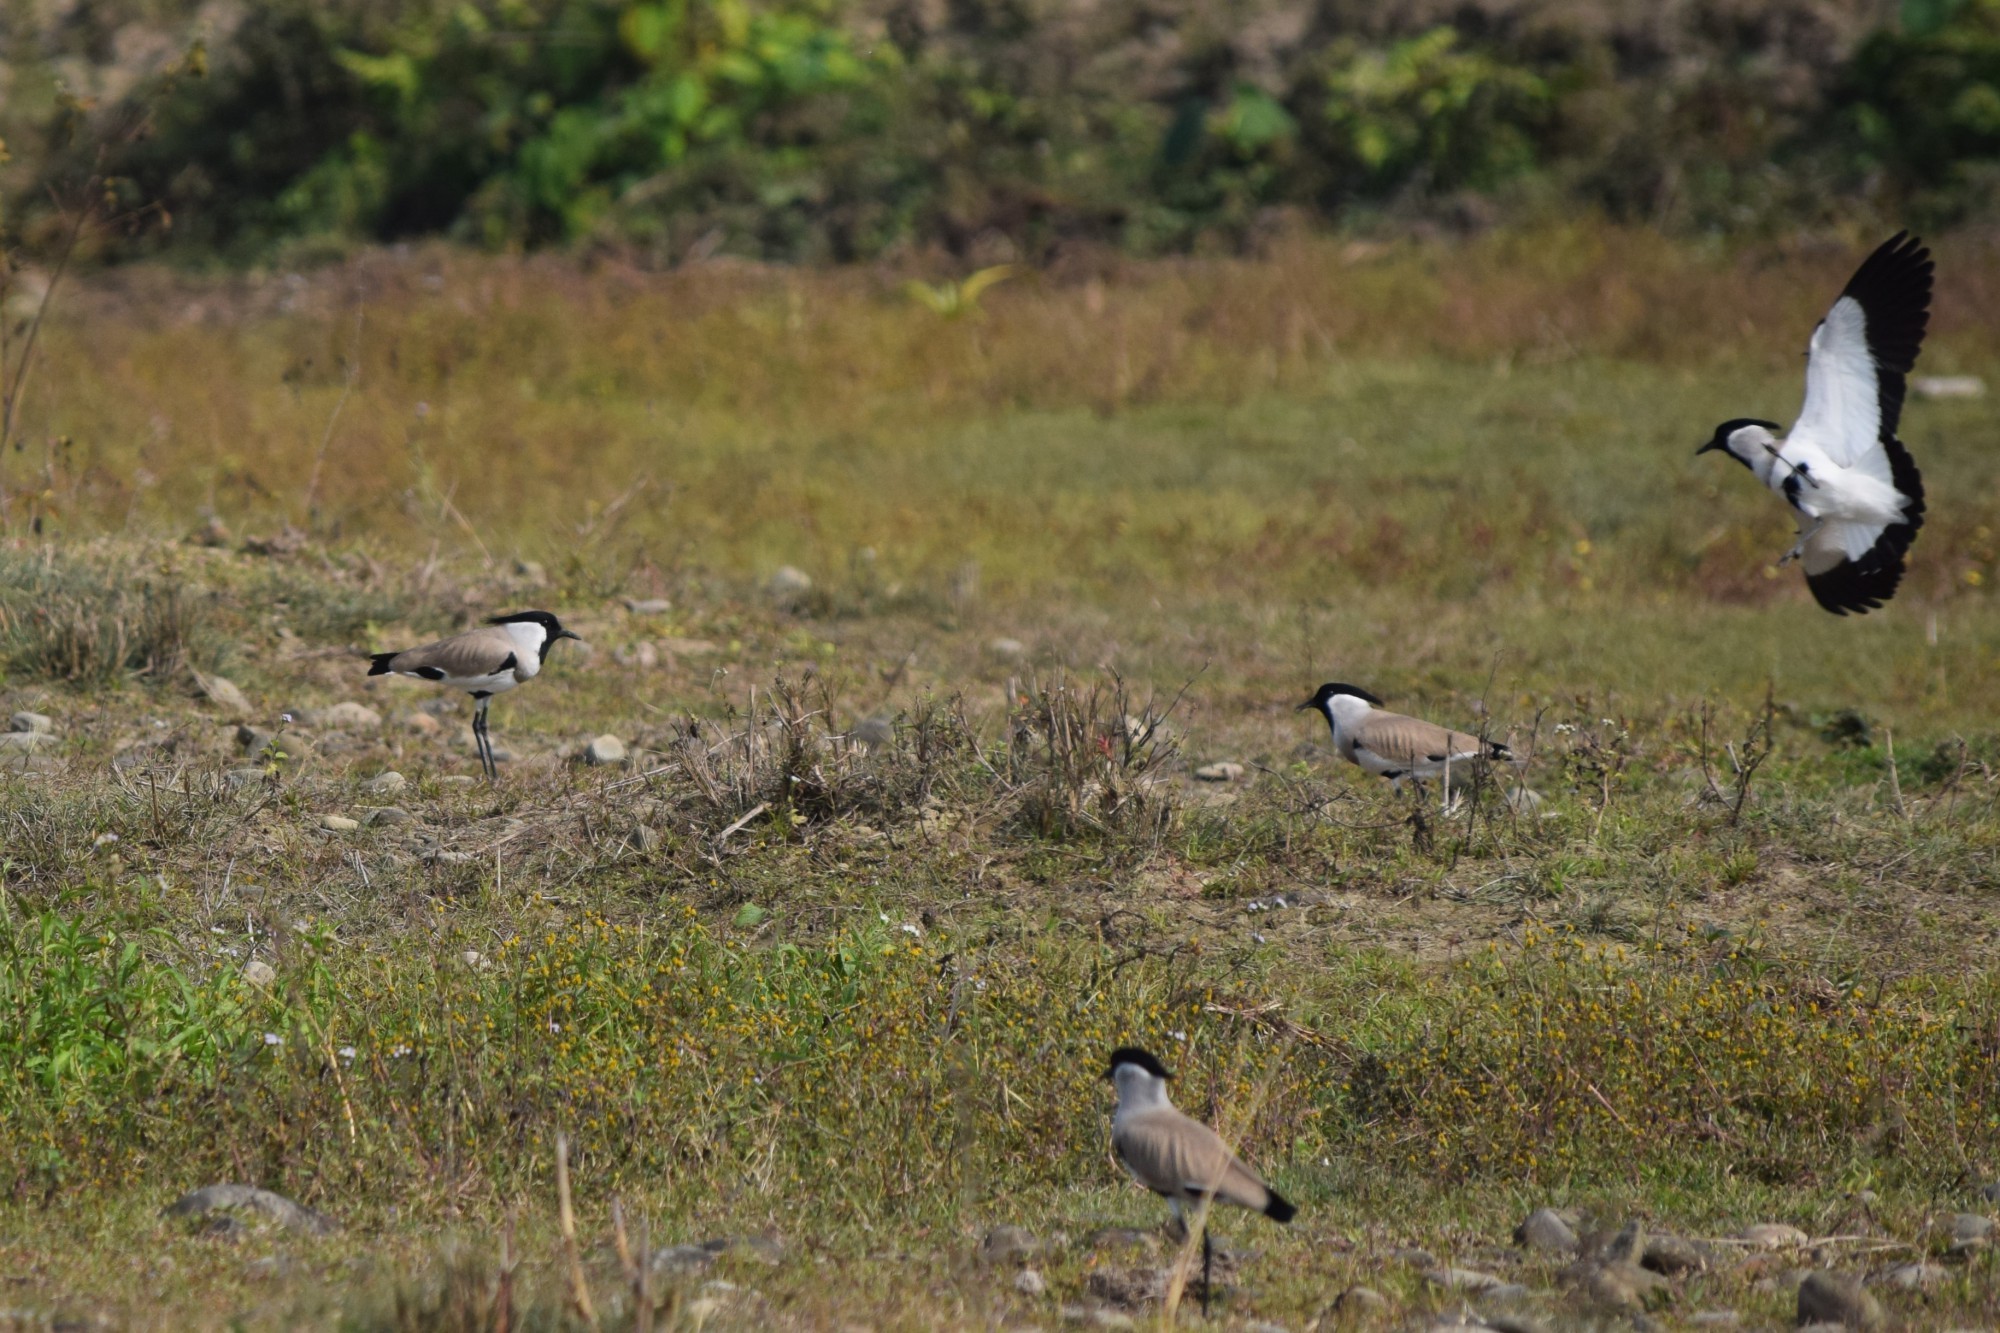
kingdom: Animalia
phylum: Chordata
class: Aves
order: Charadriiformes
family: Charadriidae
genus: Vanellus
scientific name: Vanellus duvaucelii
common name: River lapwing
